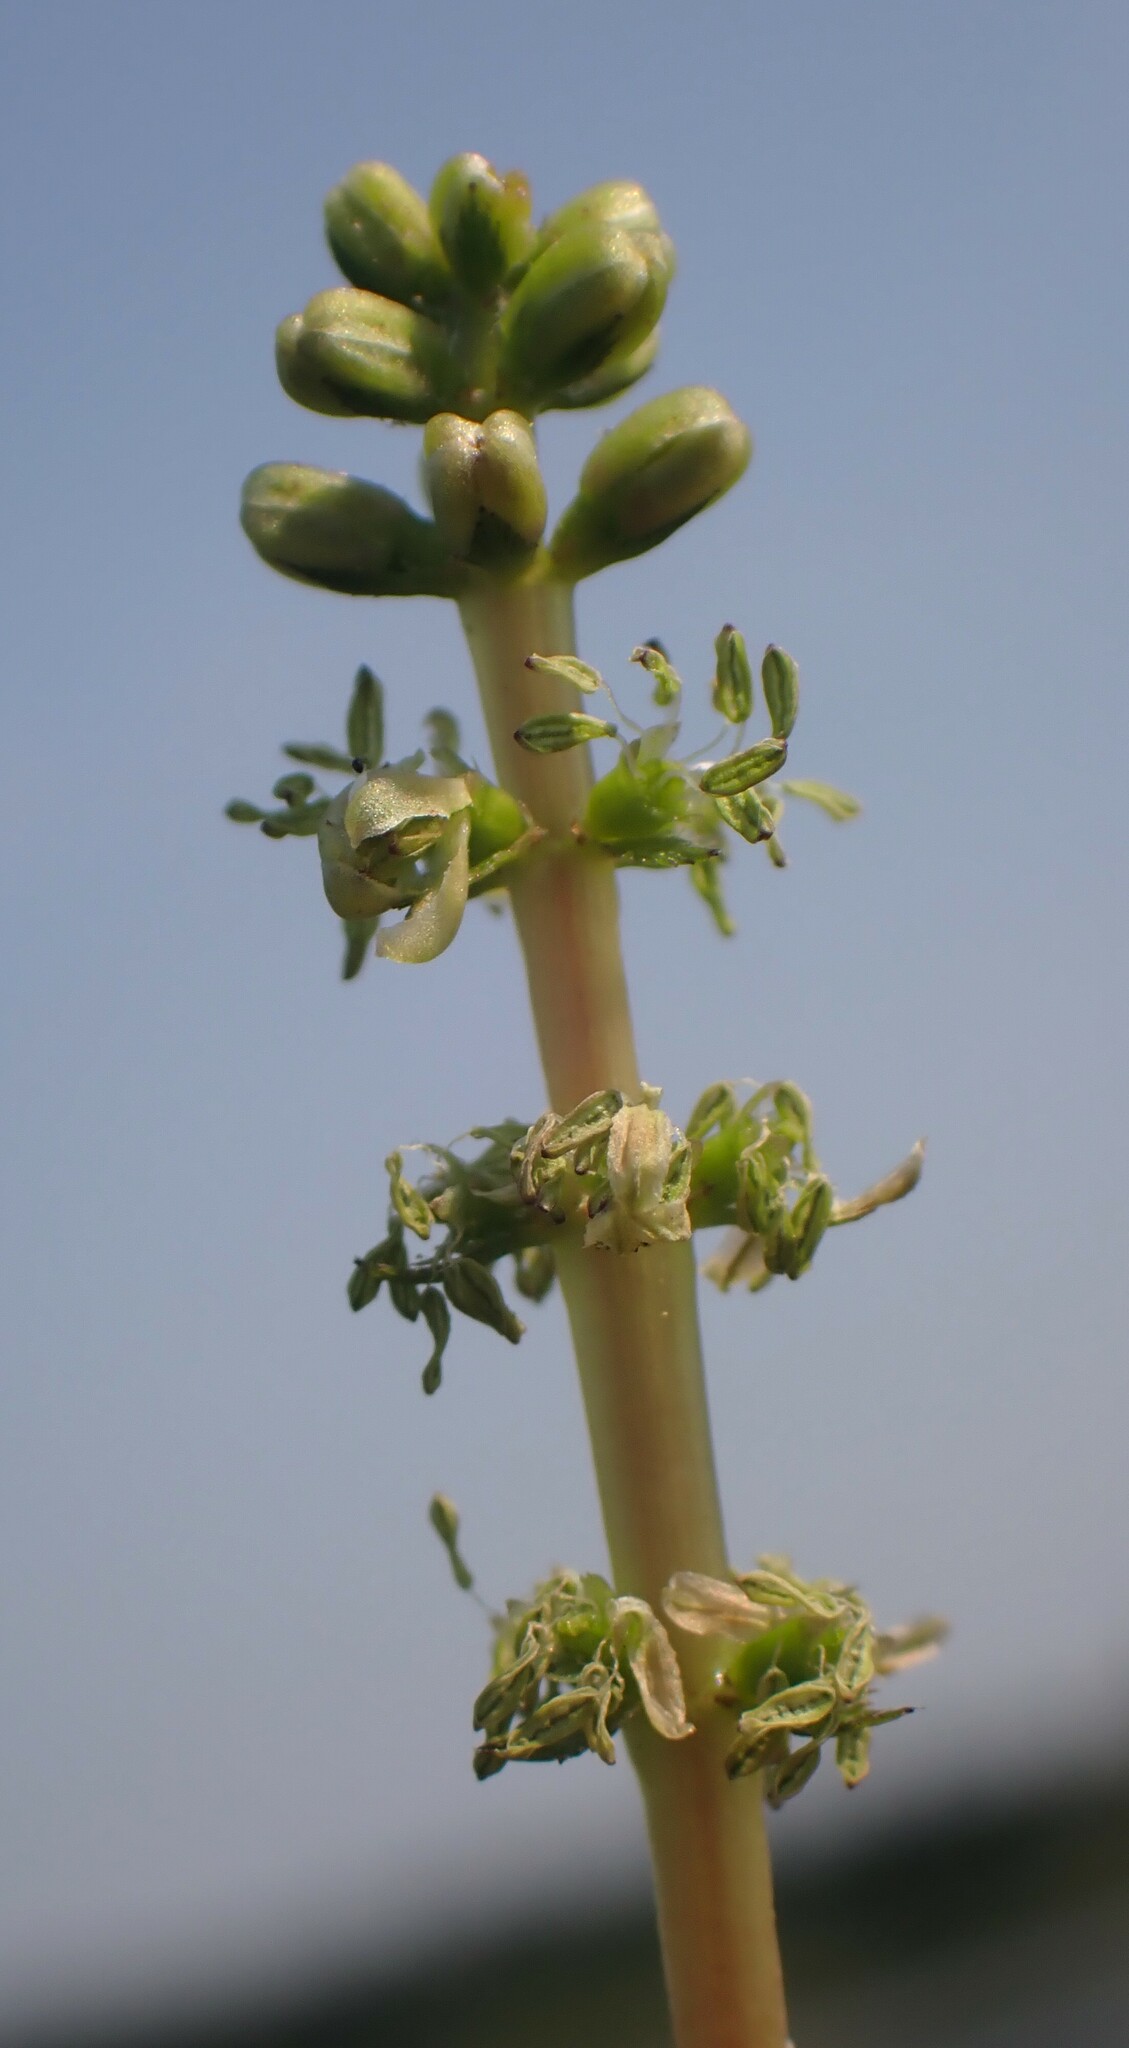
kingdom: Plantae
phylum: Tracheophyta
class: Magnoliopsida
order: Saxifragales
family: Haloragaceae
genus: Myriophyllum
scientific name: Myriophyllum sibiricum
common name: Siberian water-milfoil
